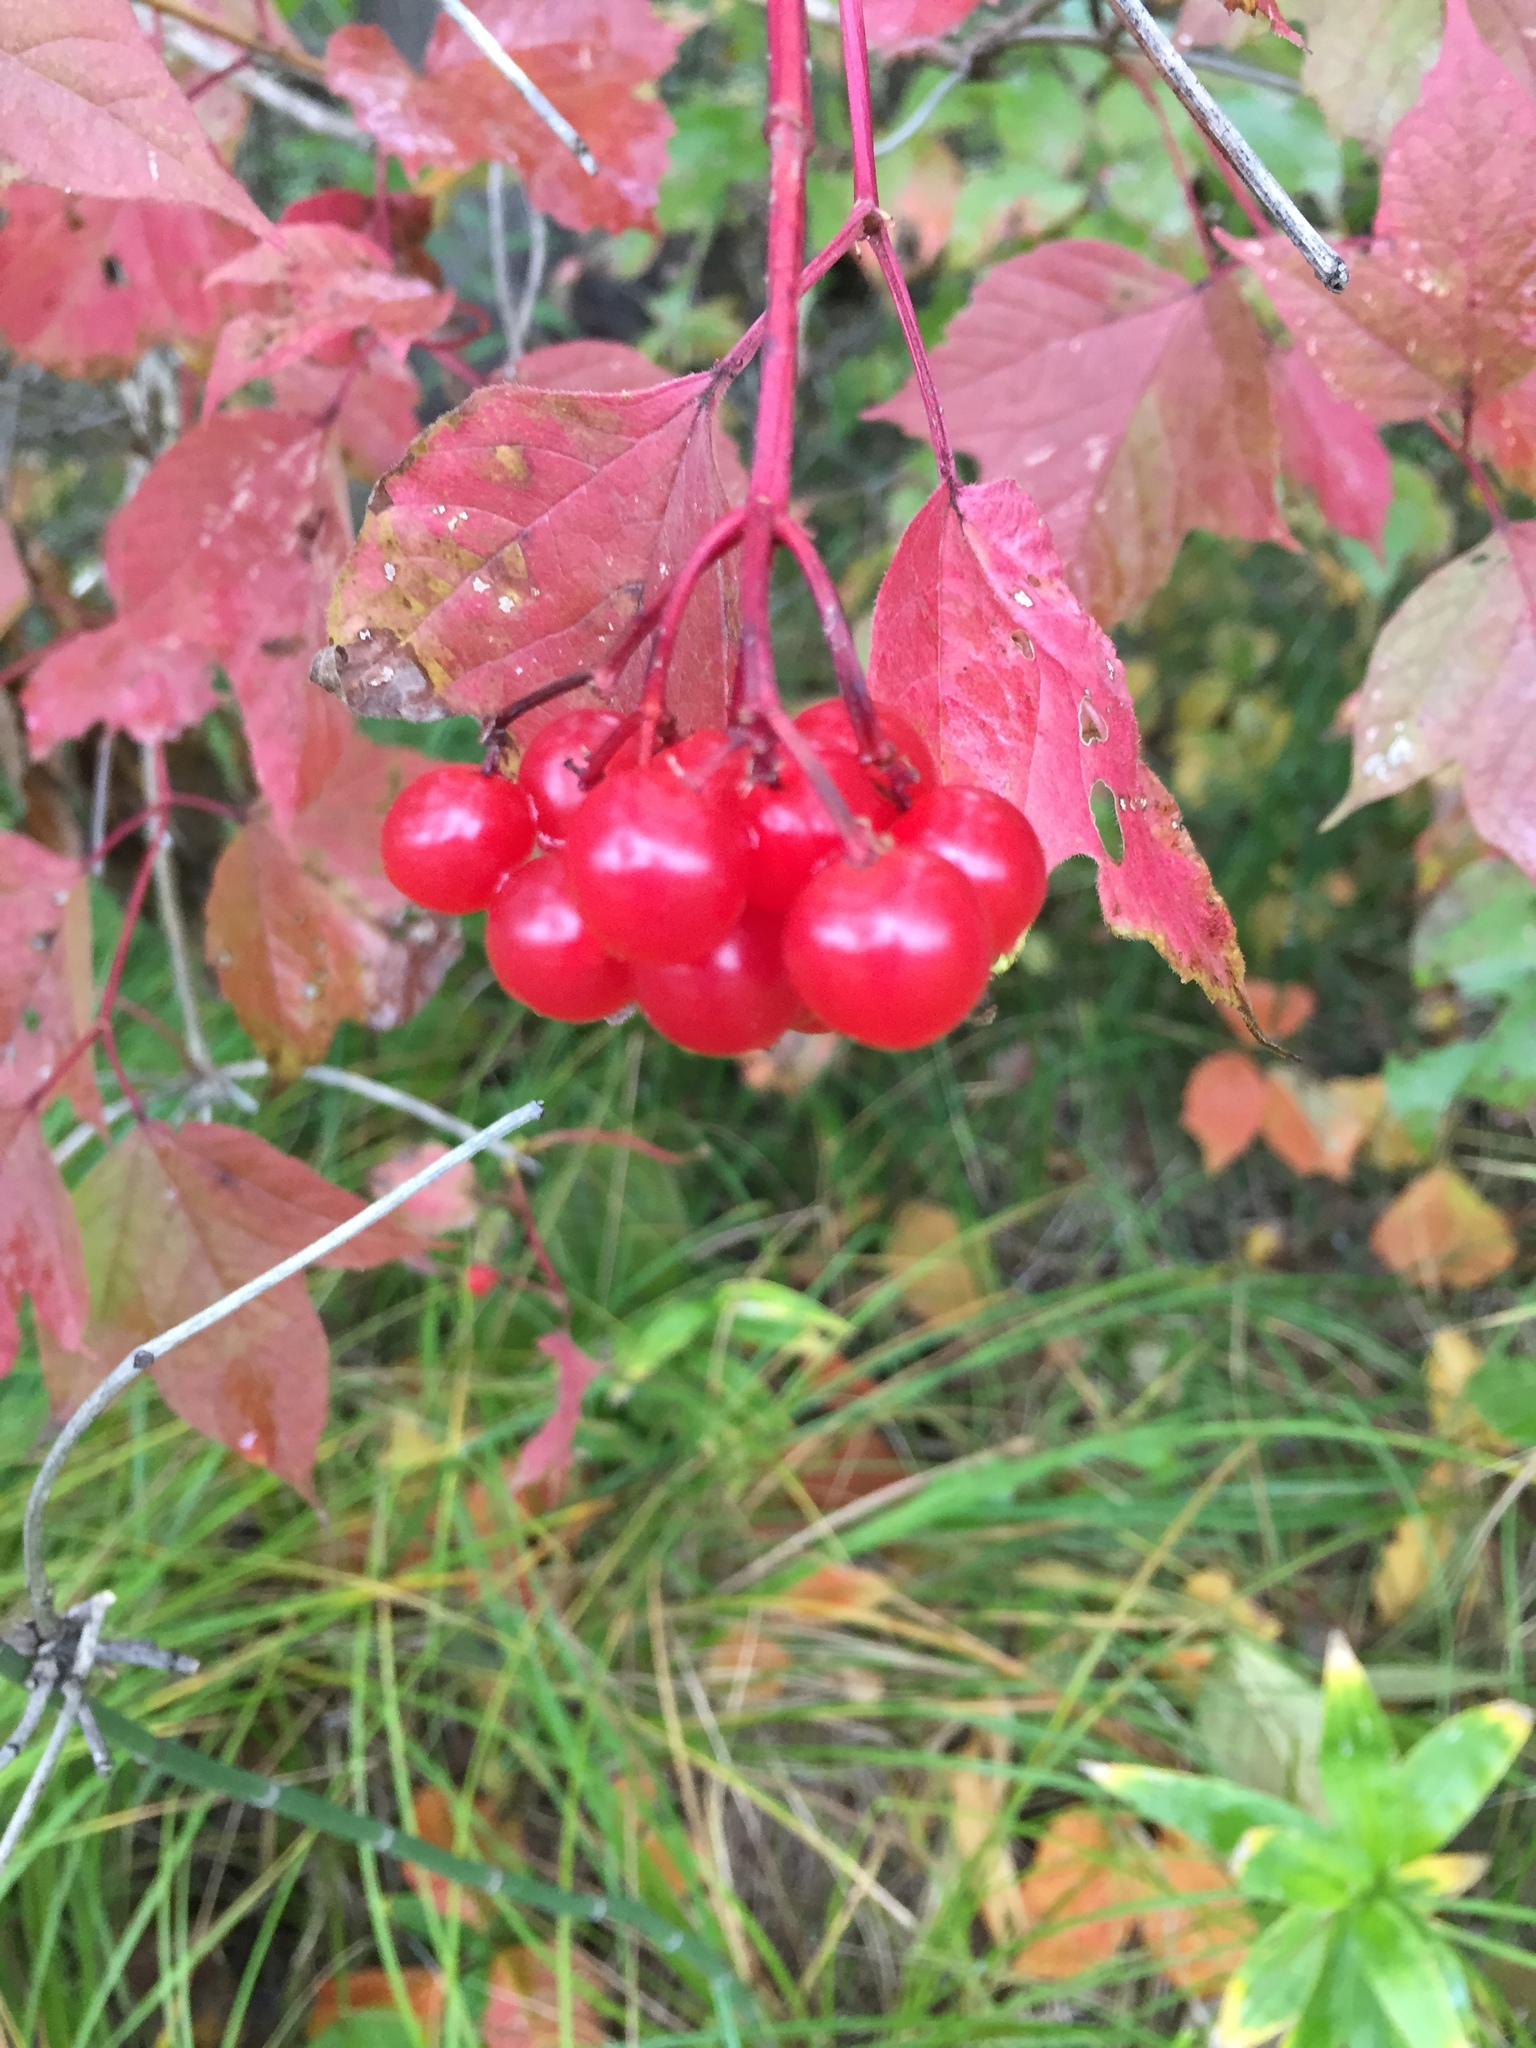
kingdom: Plantae
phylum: Tracheophyta
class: Magnoliopsida
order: Dipsacales
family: Viburnaceae
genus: Viburnum
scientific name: Viburnum opulus
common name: Guelder-rose
